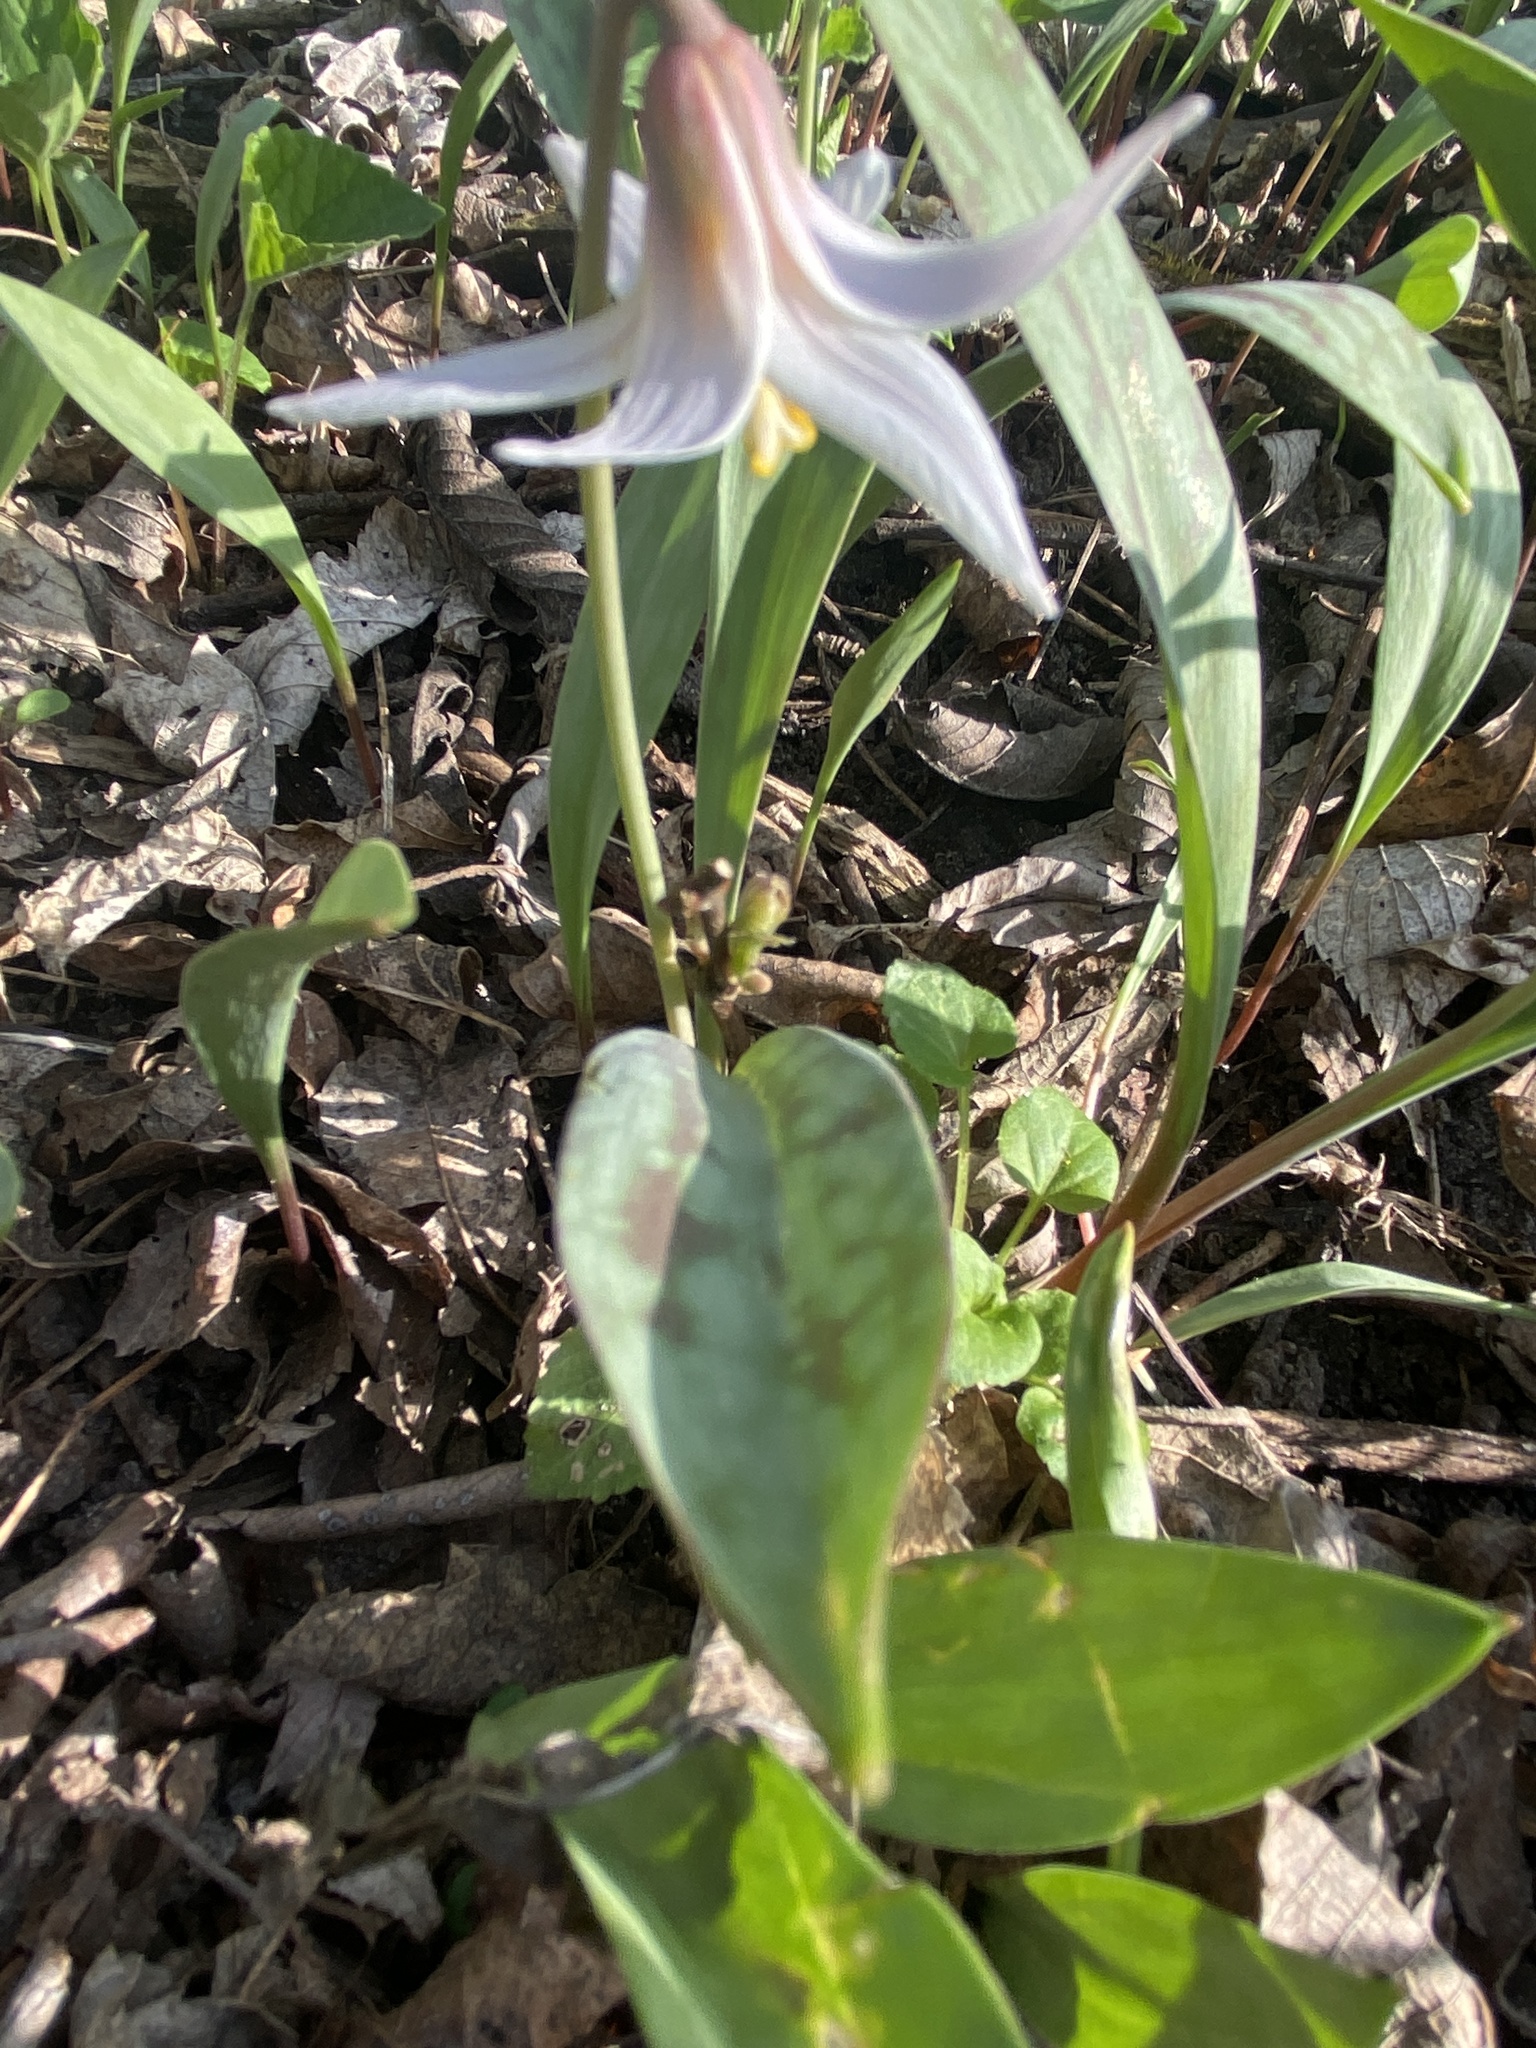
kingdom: Plantae
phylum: Tracheophyta
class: Liliopsida
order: Liliales
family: Liliaceae
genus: Erythronium
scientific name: Erythronium albidum
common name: White trout-lily
